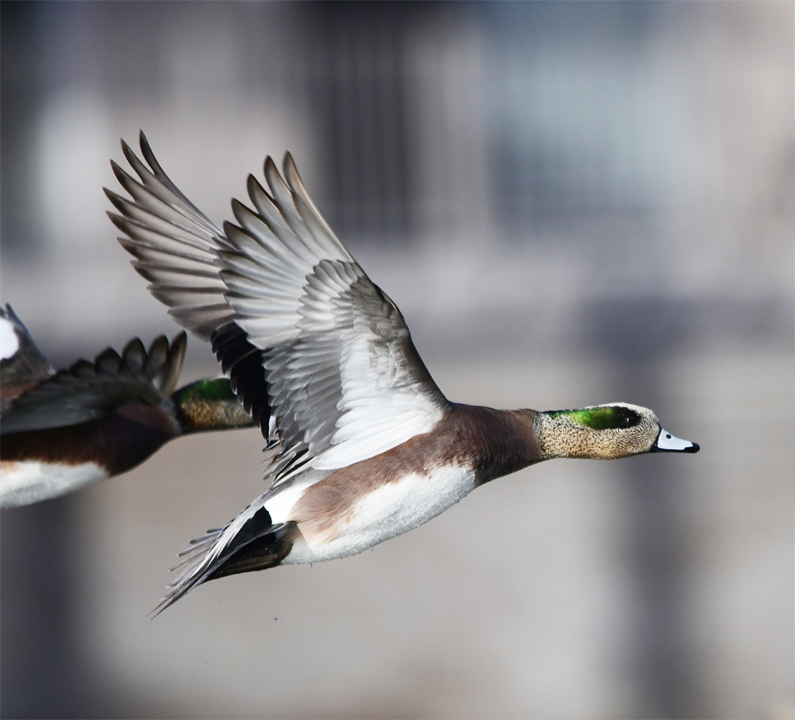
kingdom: Animalia
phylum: Chordata
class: Aves
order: Anseriformes
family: Anatidae
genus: Mareca
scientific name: Mareca americana
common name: American wigeon
